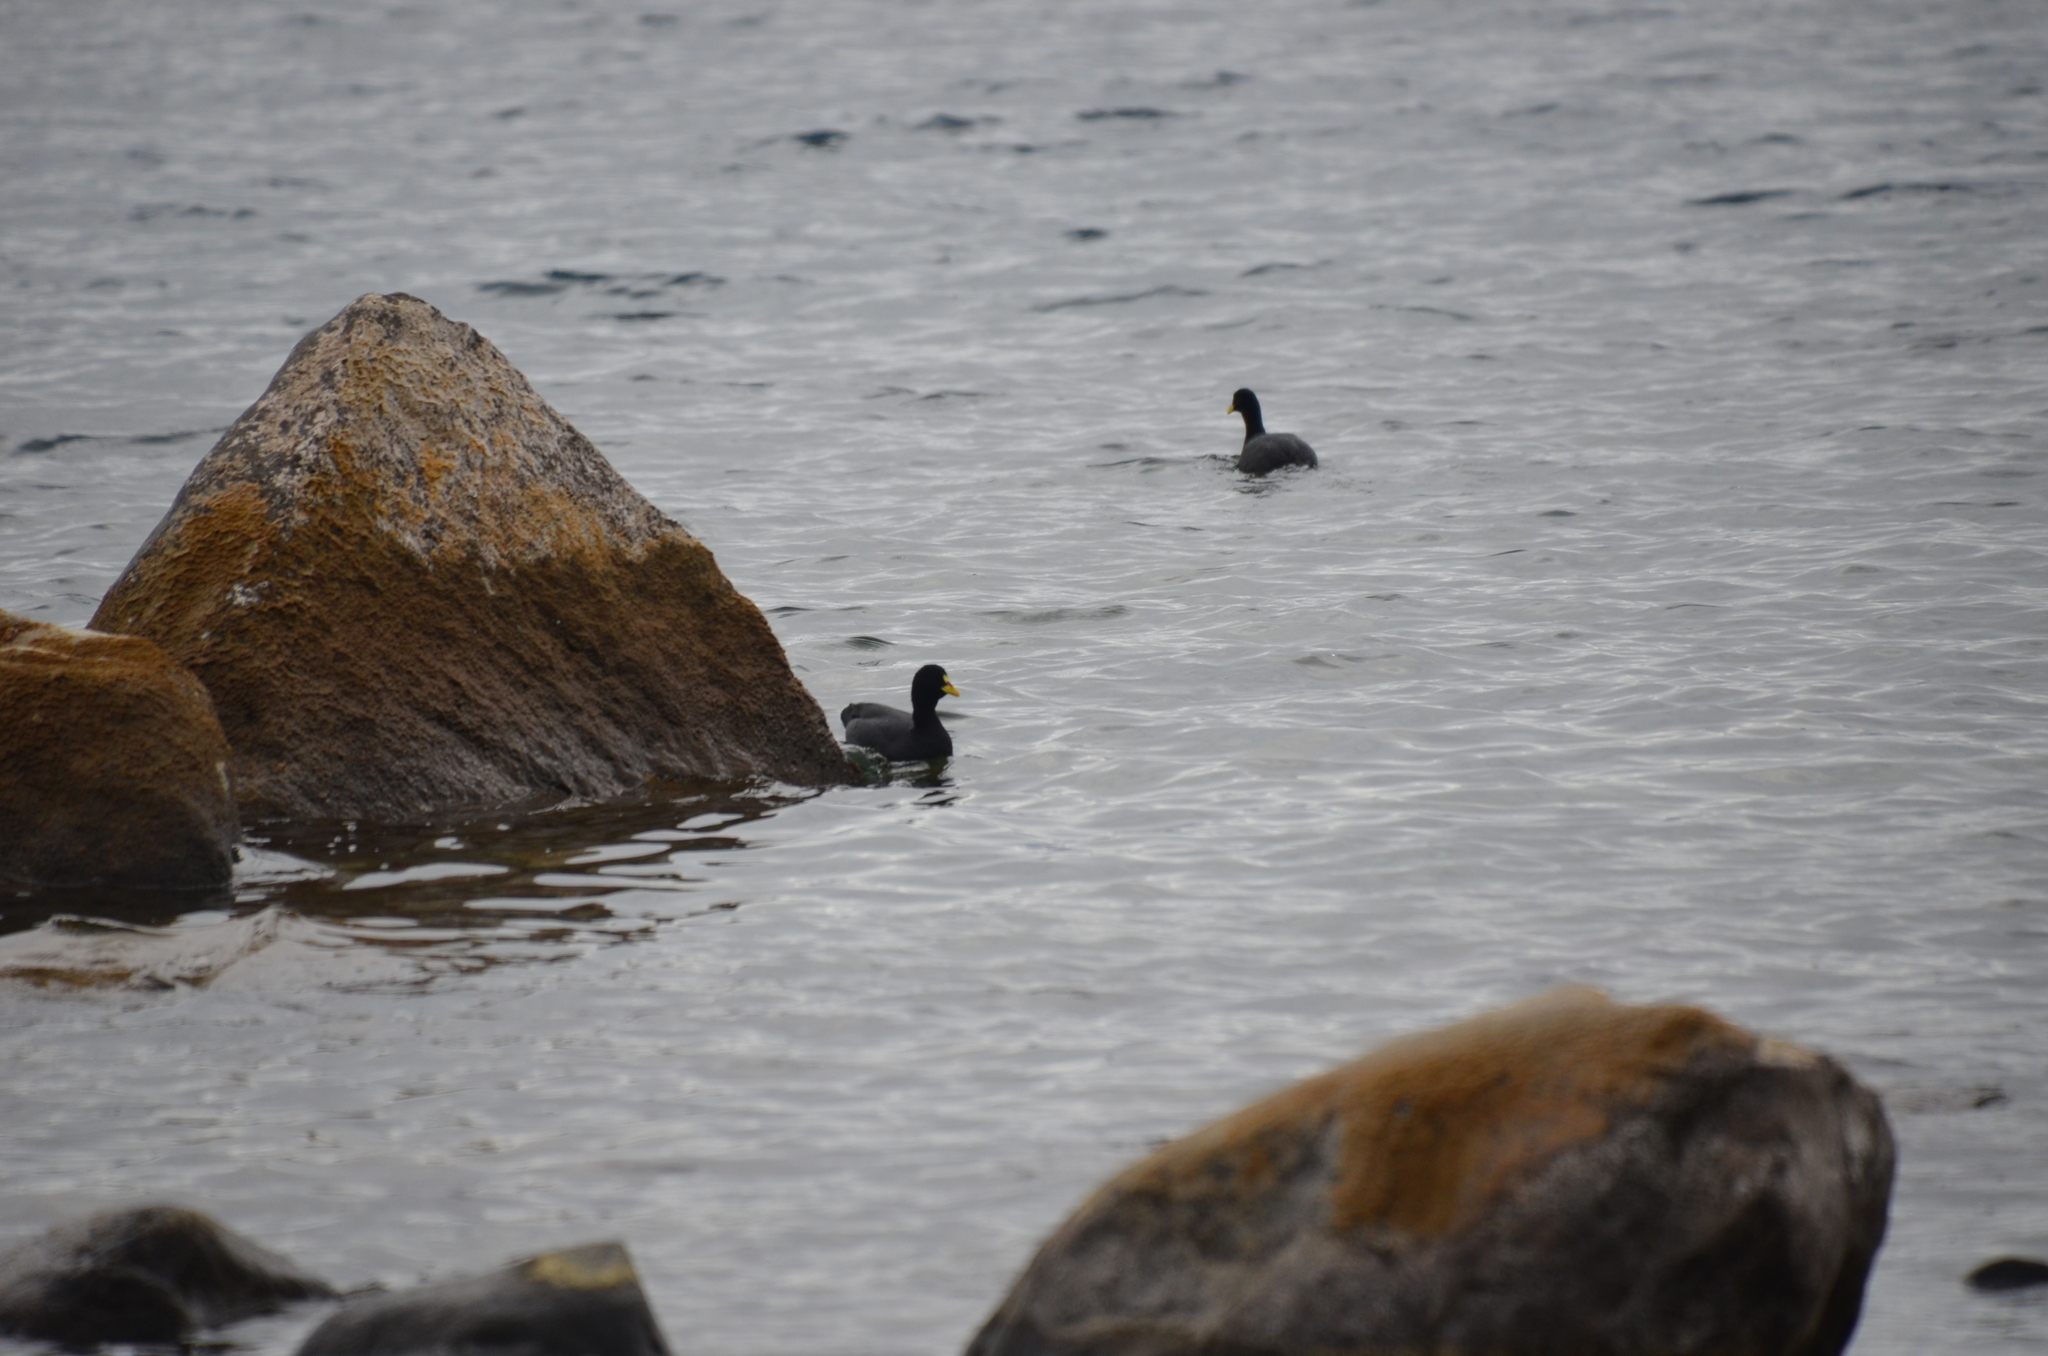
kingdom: Animalia
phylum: Chordata
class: Aves
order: Gruiformes
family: Rallidae
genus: Fulica
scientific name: Fulica armillata
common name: Red-gartered coot
